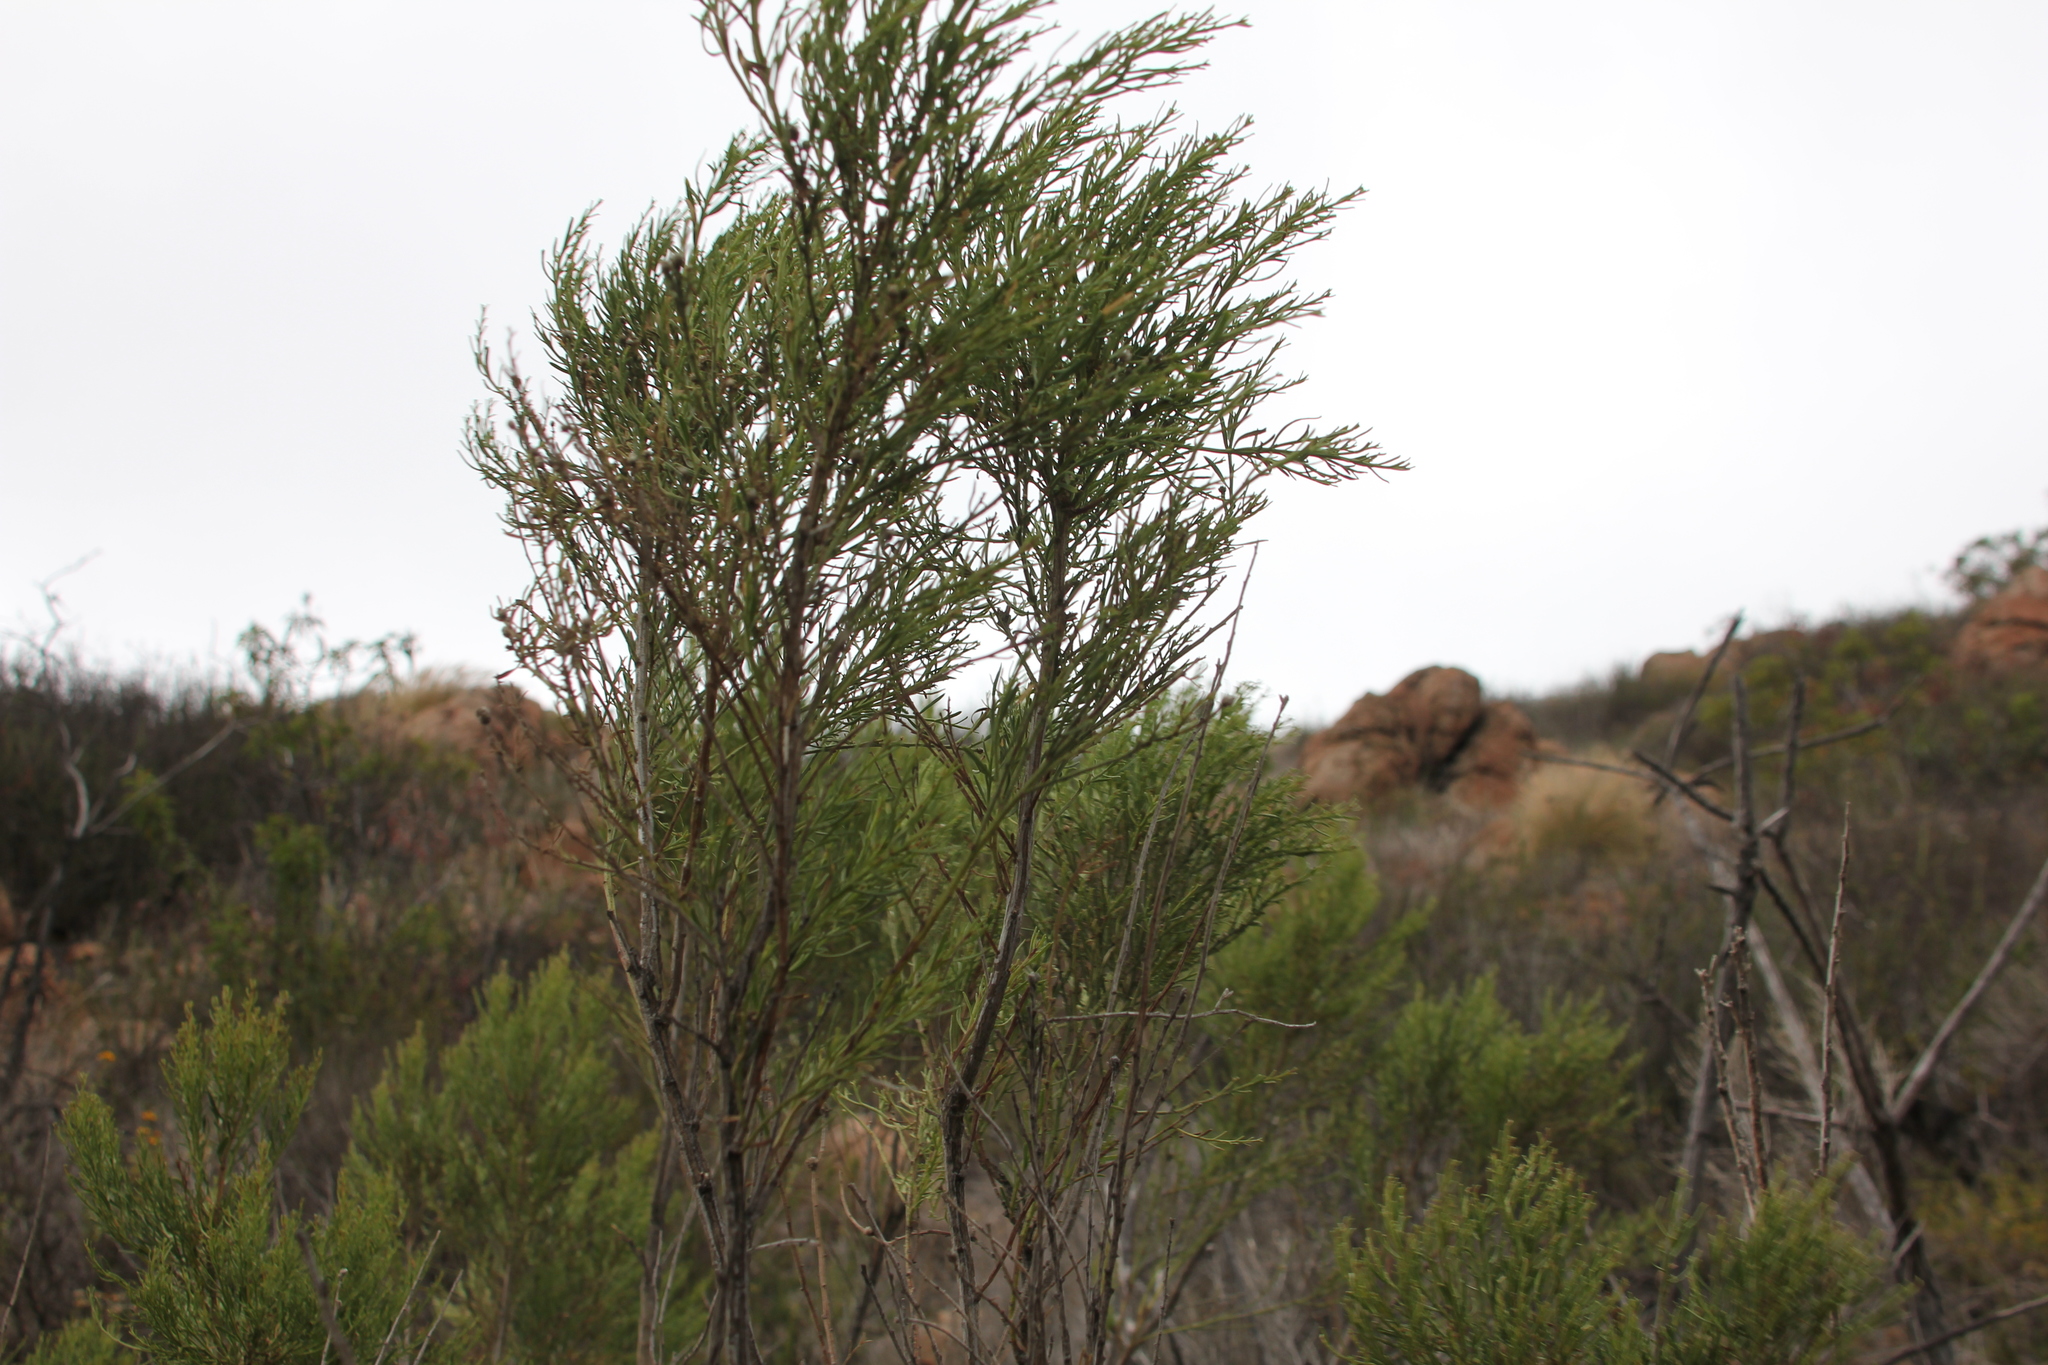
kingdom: Plantae
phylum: Tracheophyta
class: Magnoliopsida
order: Asterales
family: Asteraceae
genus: Baccharis
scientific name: Baccharis sarothroides
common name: Desert-broom
